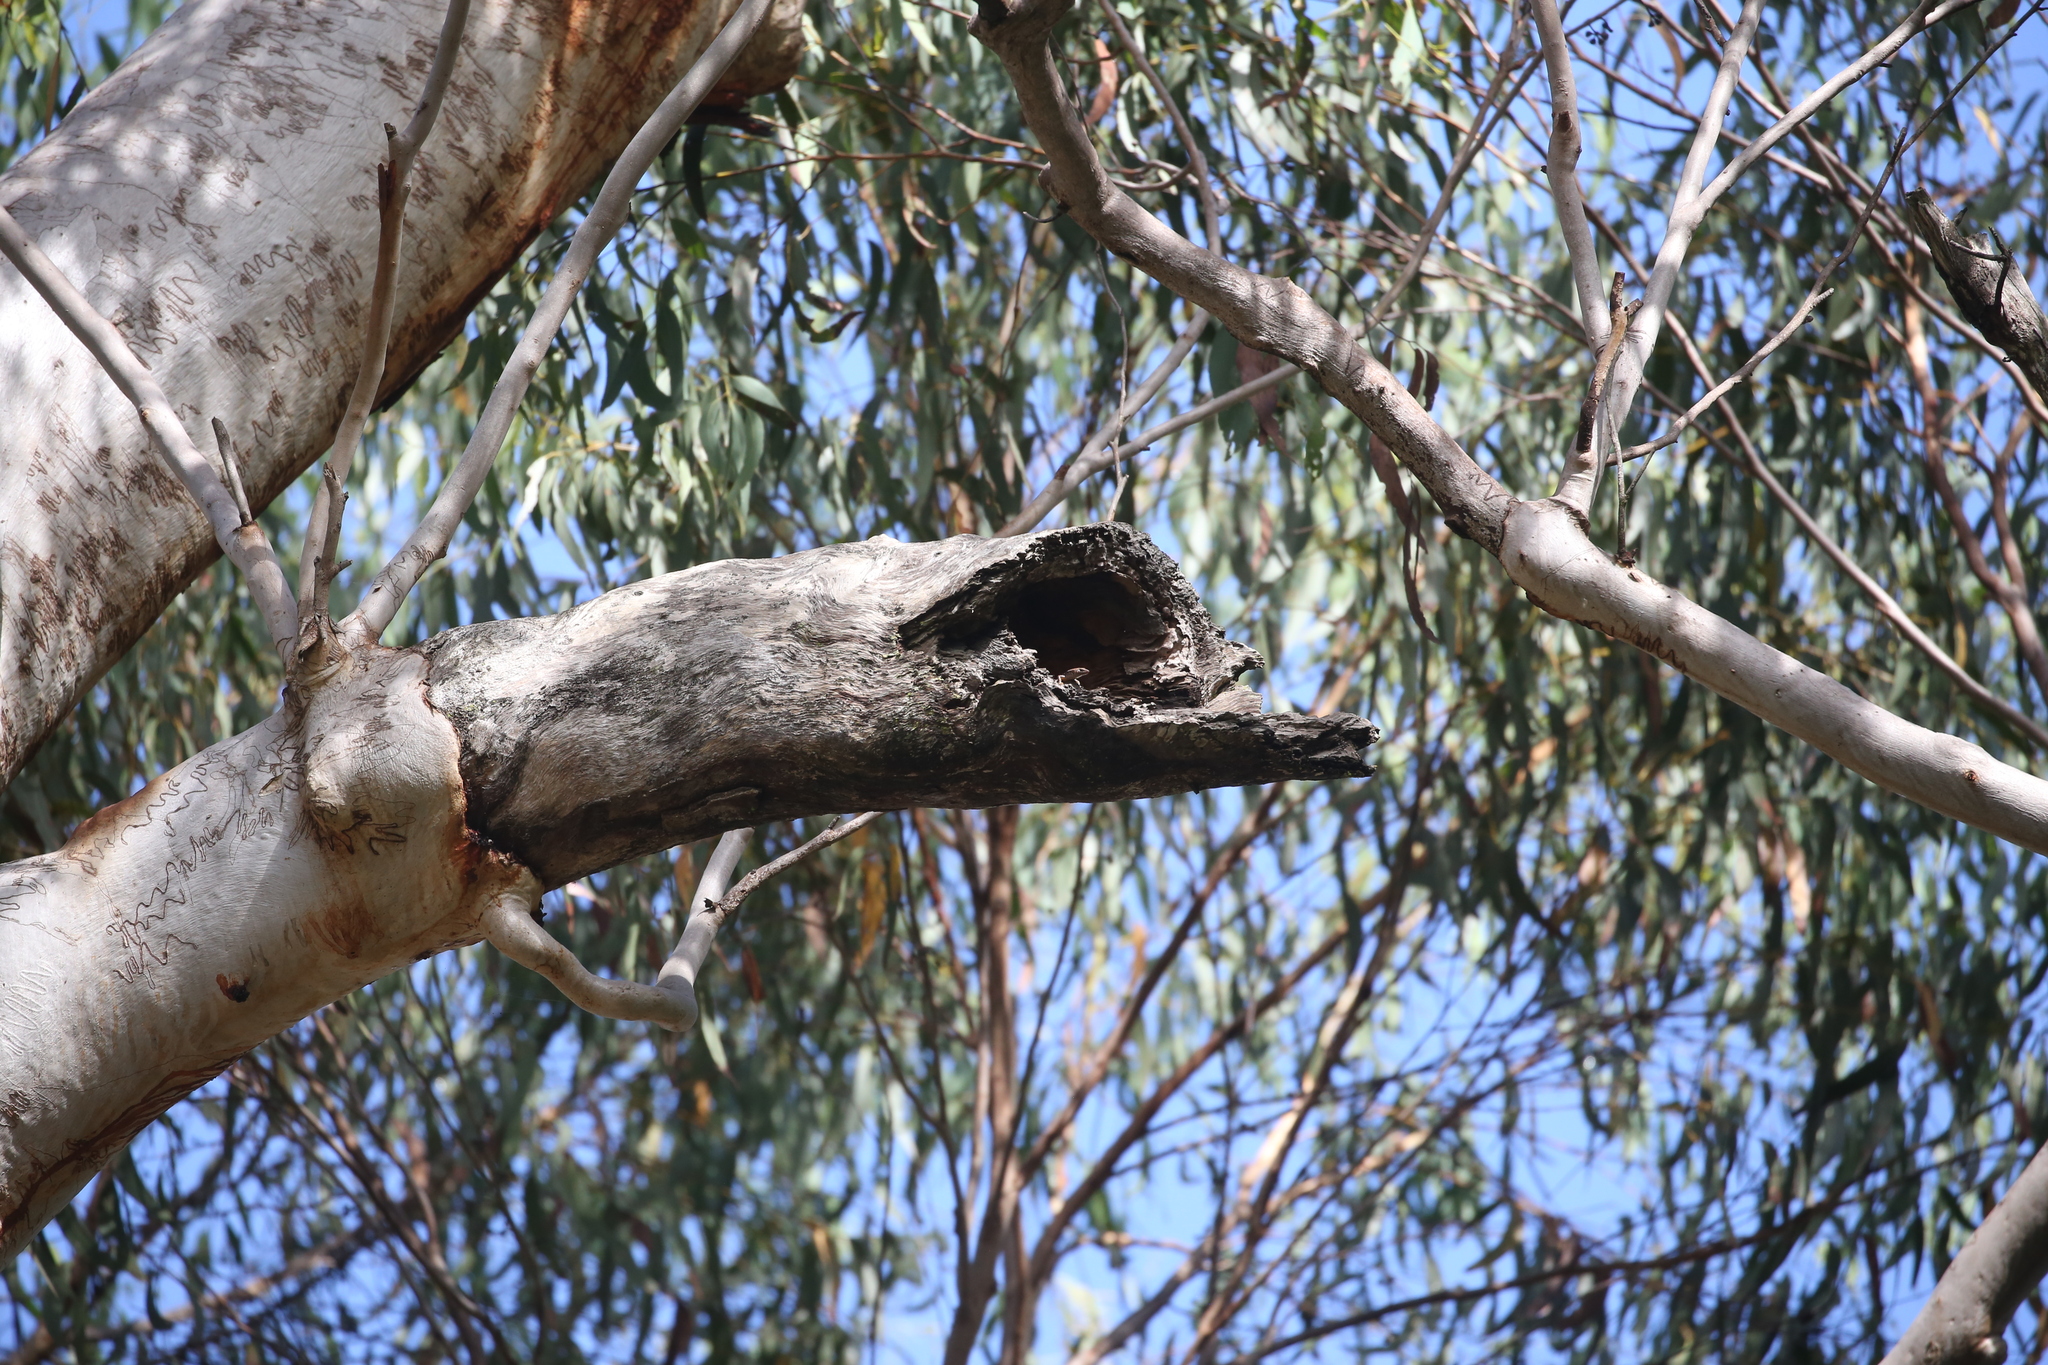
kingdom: Plantae
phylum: Tracheophyta
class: Magnoliopsida
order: Myrtales
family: Myrtaceae
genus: Eucalyptus
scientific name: Eucalyptus racemosa
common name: Scribbly gum
